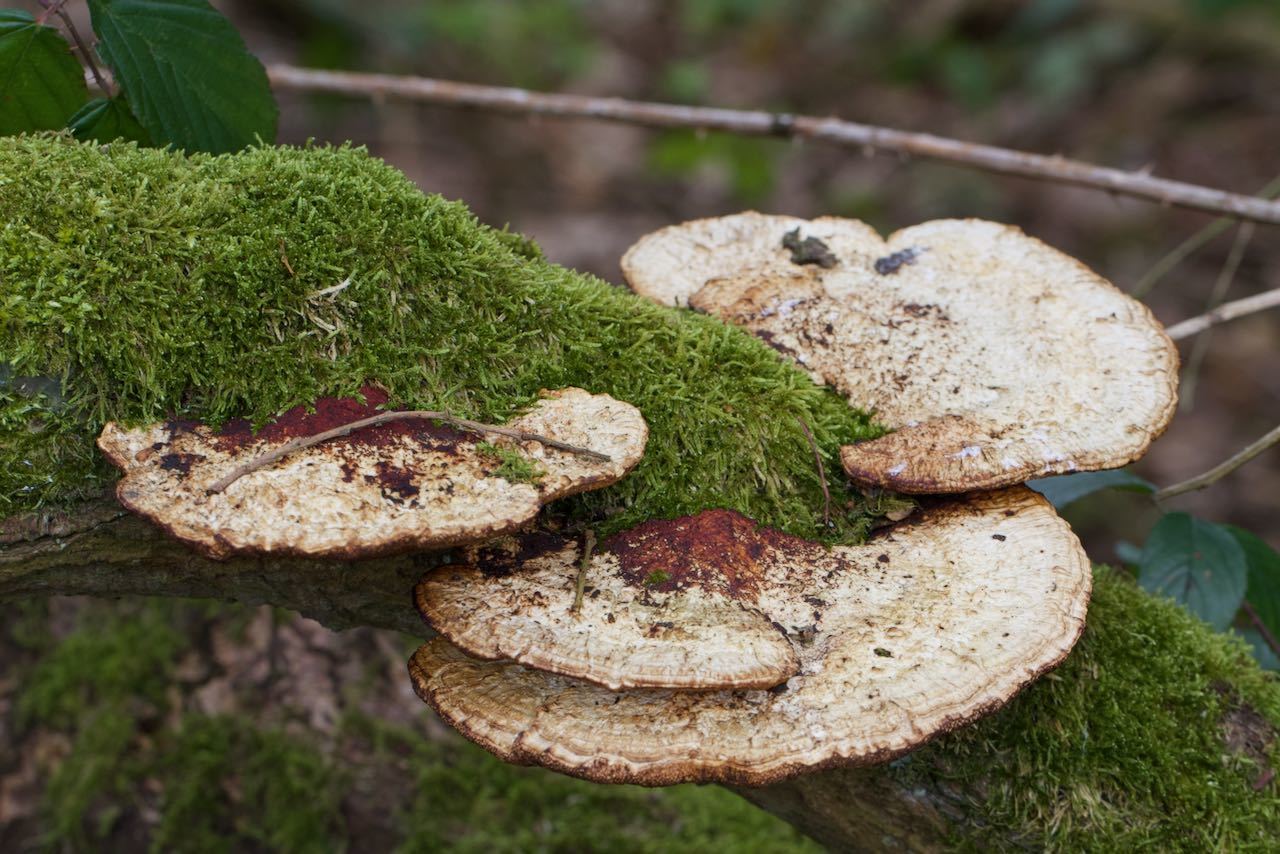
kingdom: Fungi
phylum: Basidiomycota
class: Agaricomycetes
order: Polyporales
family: Polyporaceae
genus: Daedaleopsis
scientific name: Daedaleopsis confragosa
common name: Blushing bracket
